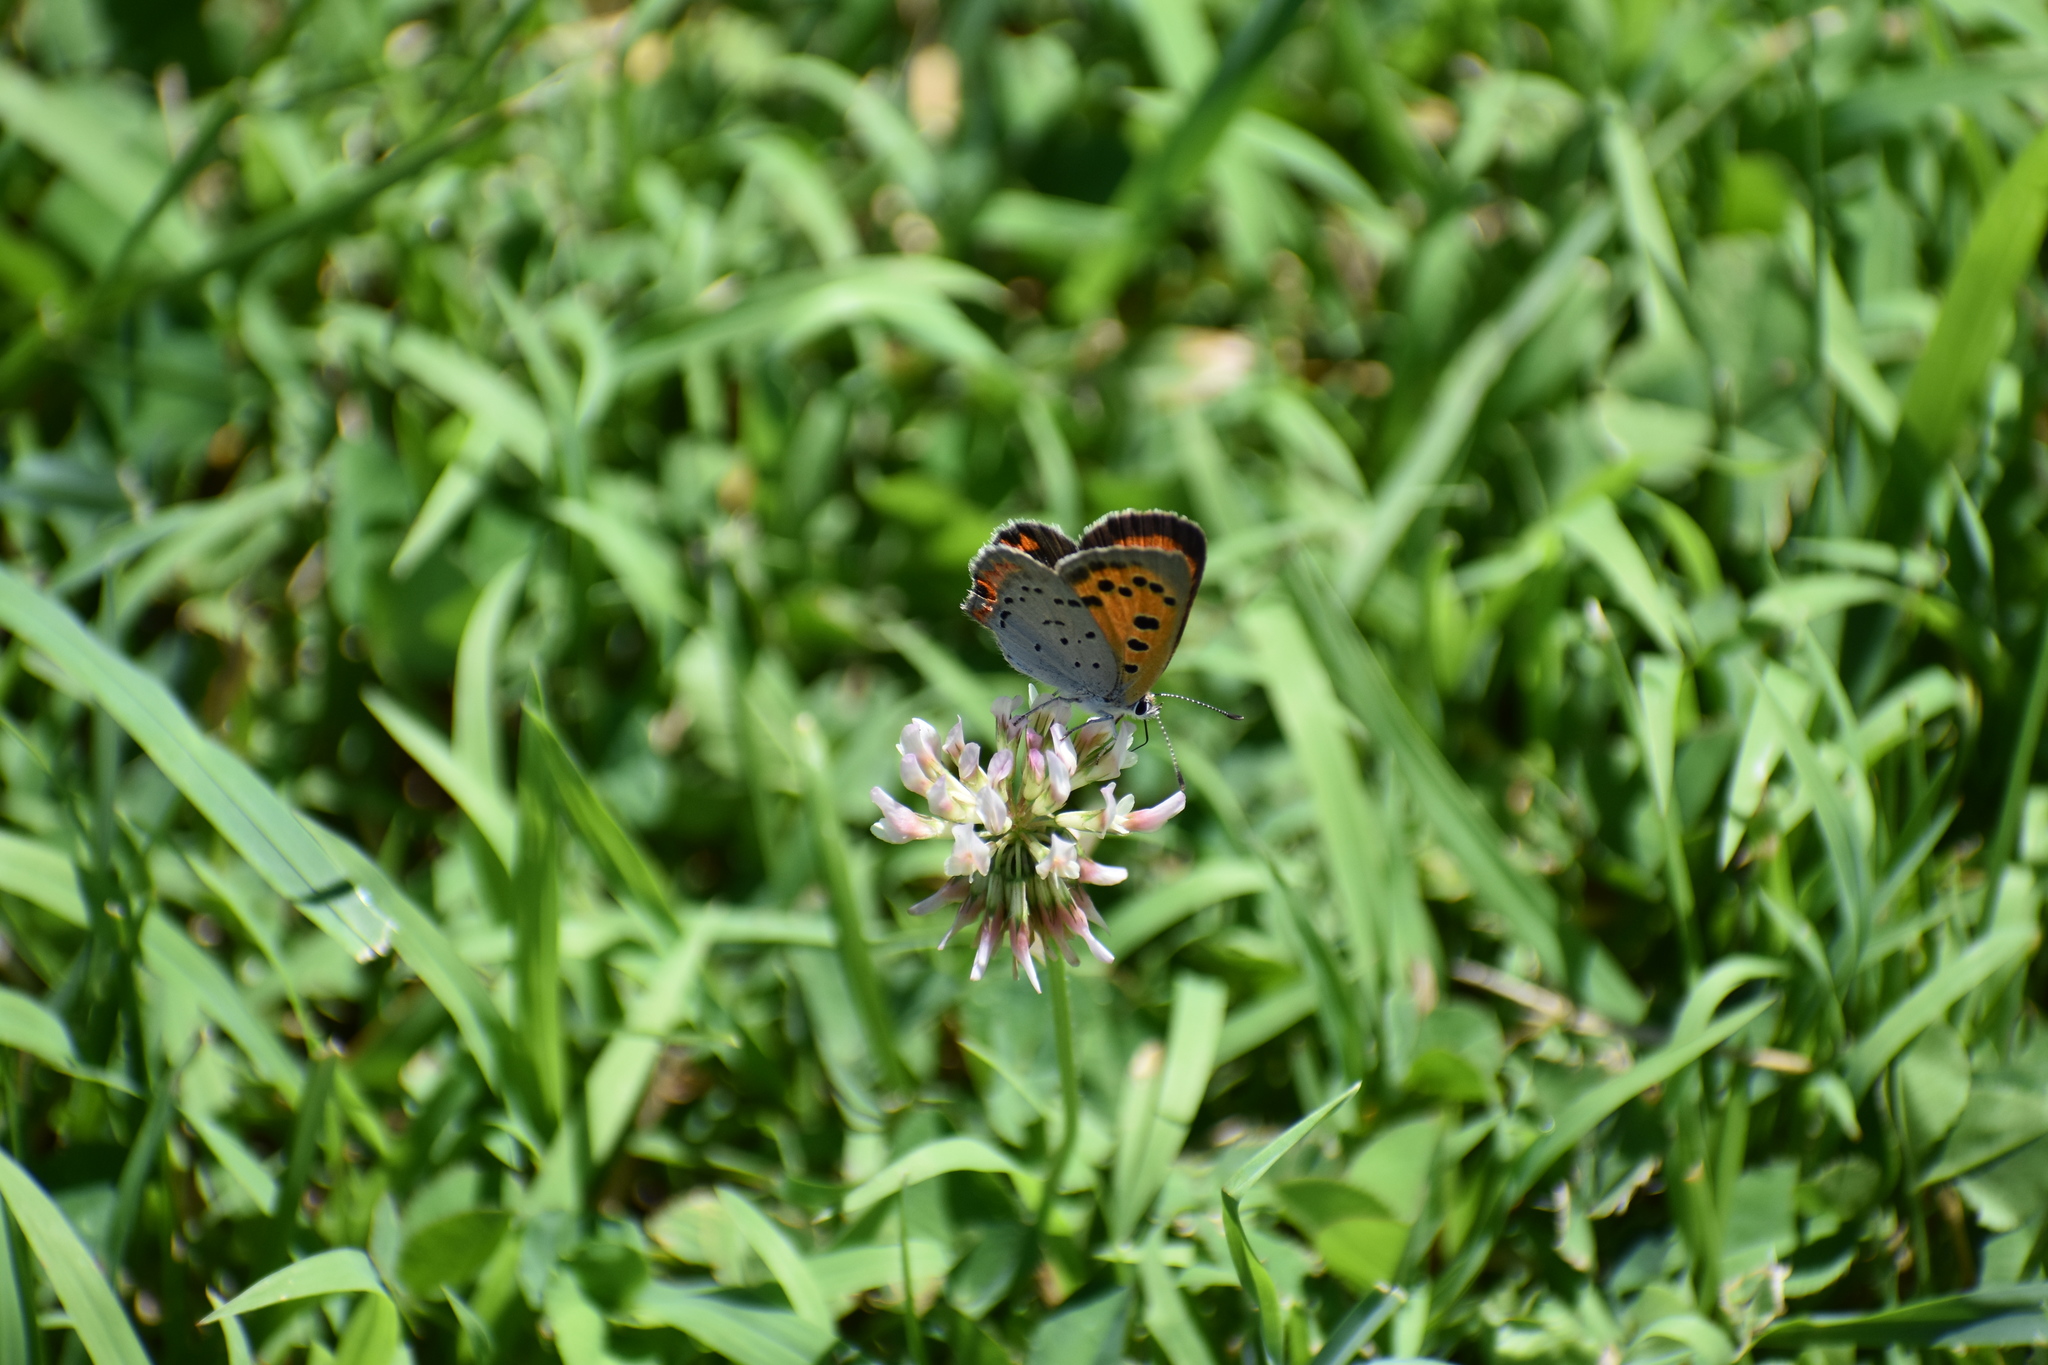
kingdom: Animalia
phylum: Arthropoda
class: Insecta
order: Lepidoptera
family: Lycaenidae
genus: Lycaena
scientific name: Lycaena hypophlaeas
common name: American copper
